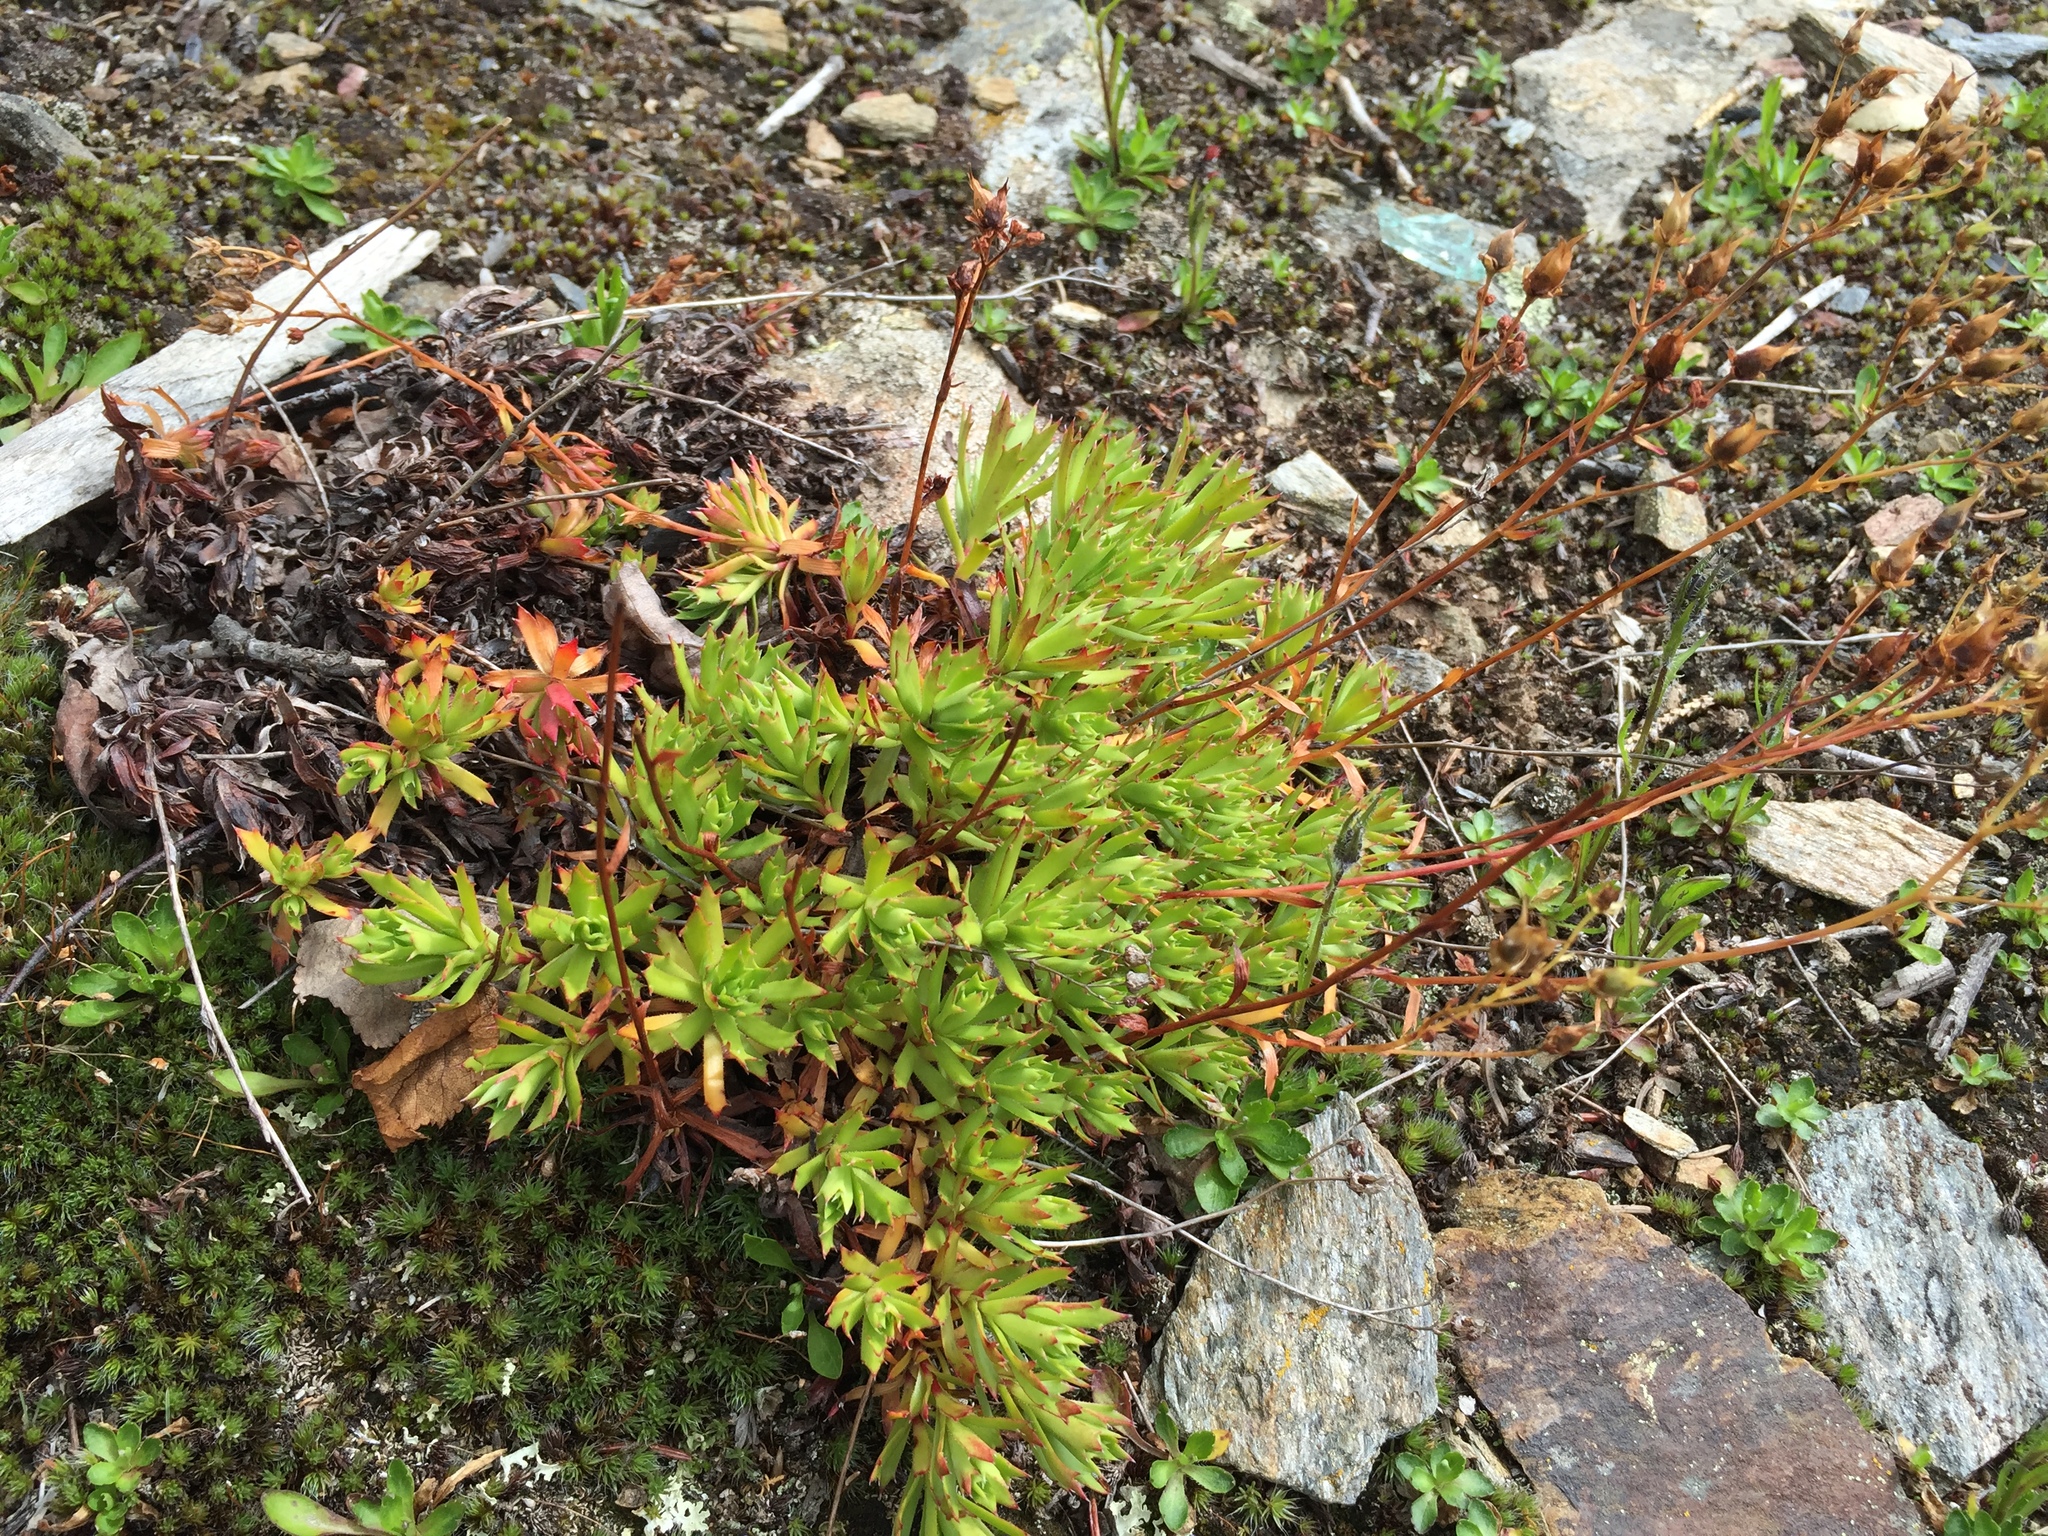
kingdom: Plantae
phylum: Tracheophyta
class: Magnoliopsida
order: Saxifragales
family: Saxifragaceae
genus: Saxifraga
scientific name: Saxifraga tricuspidata
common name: Prickly saxifrage
